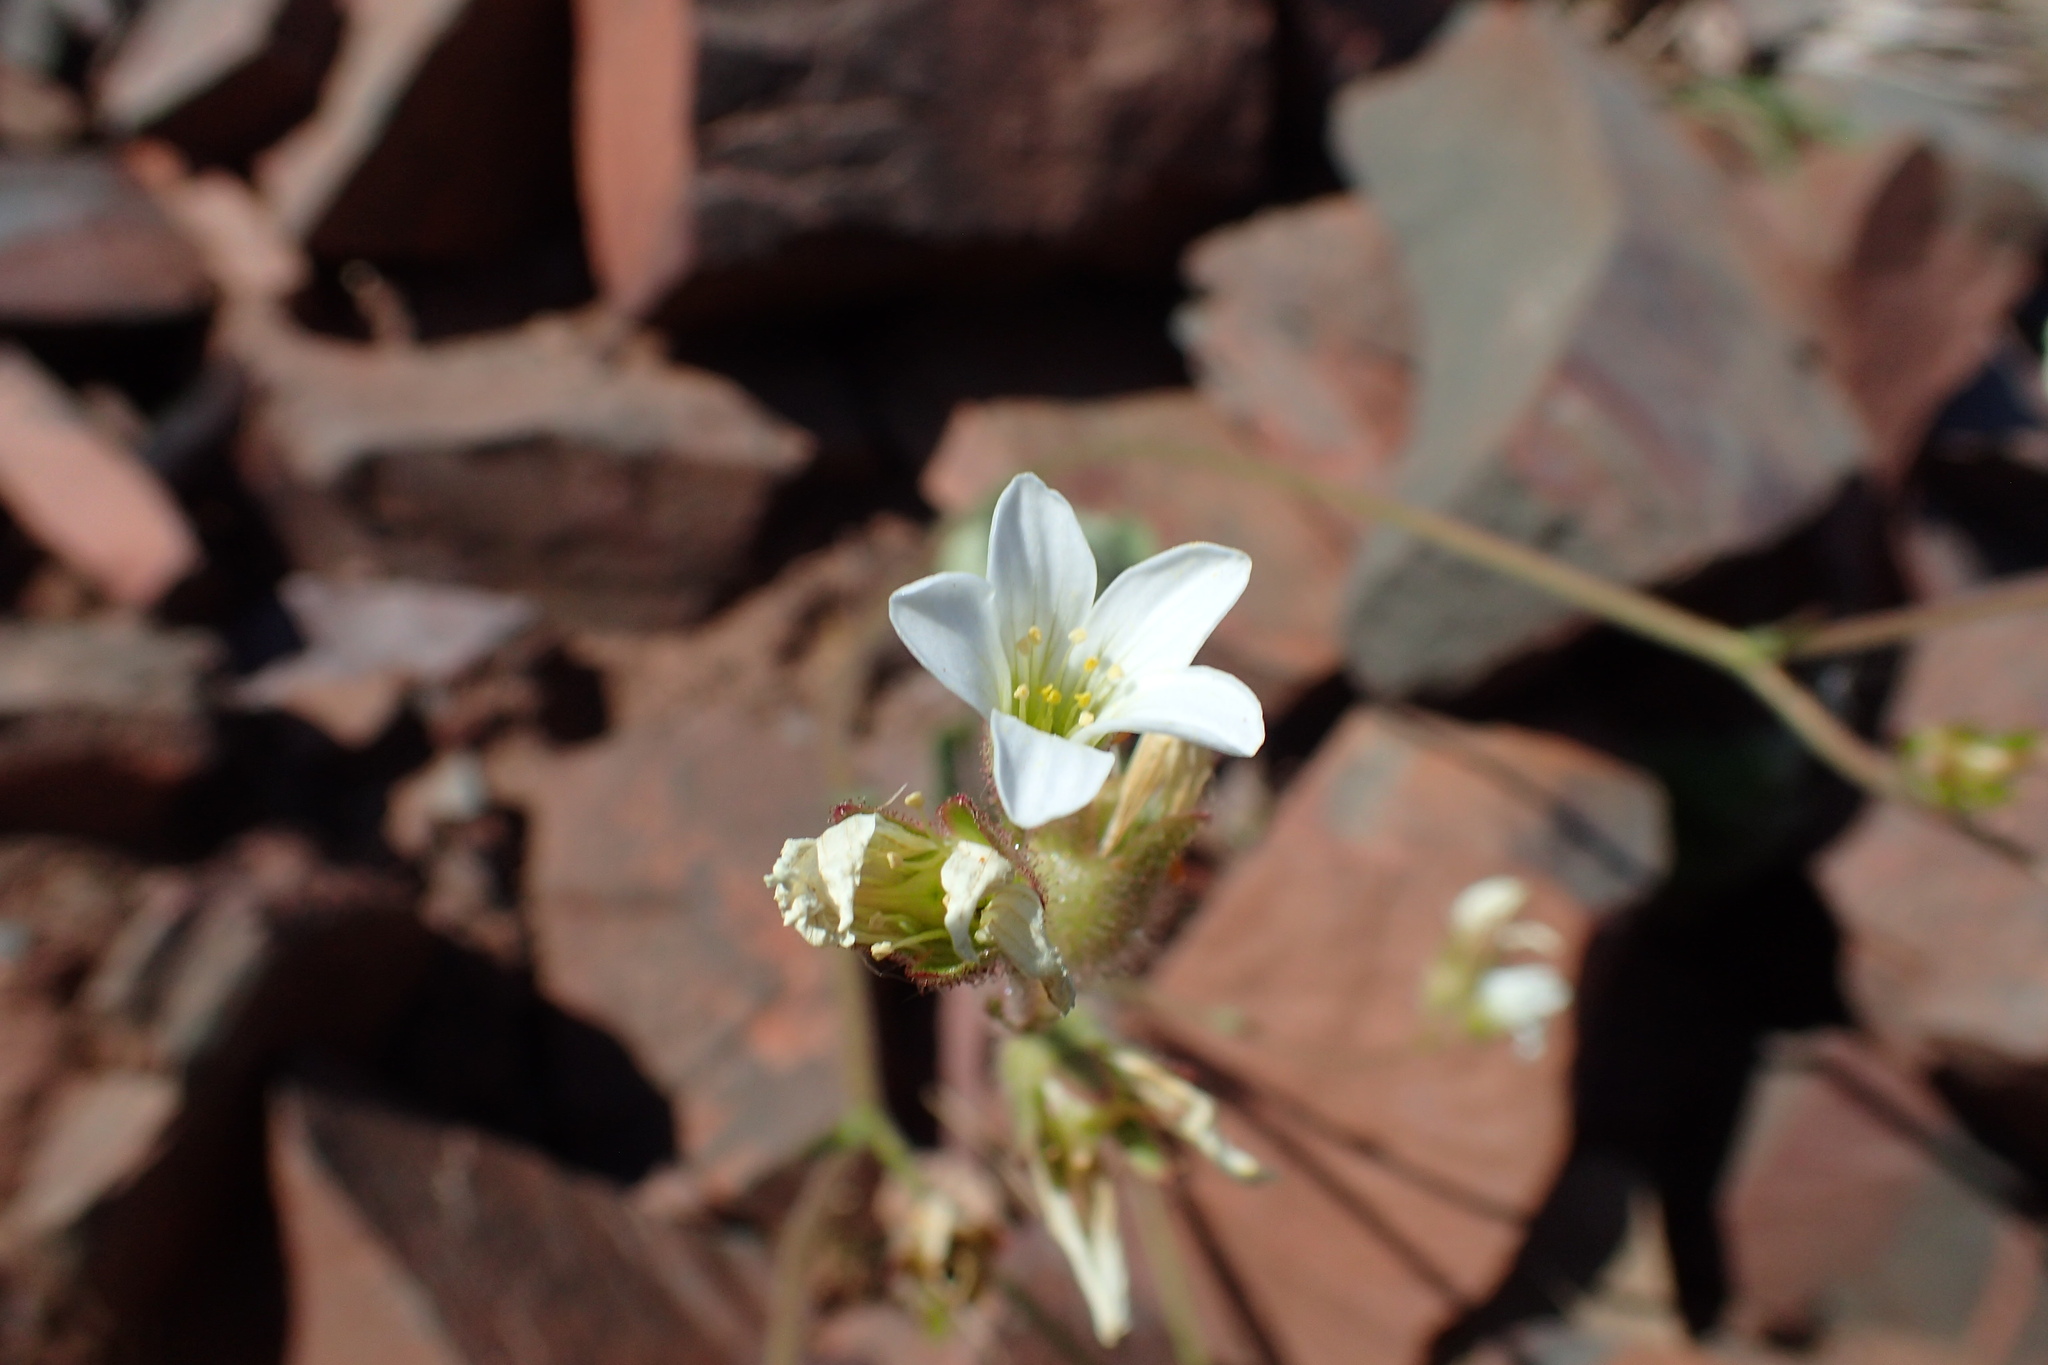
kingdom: Plantae
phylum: Tracheophyta
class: Magnoliopsida
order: Saxifragales
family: Saxifragaceae
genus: Saxifraga
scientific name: Saxifraga granulata
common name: Meadow saxifrage
